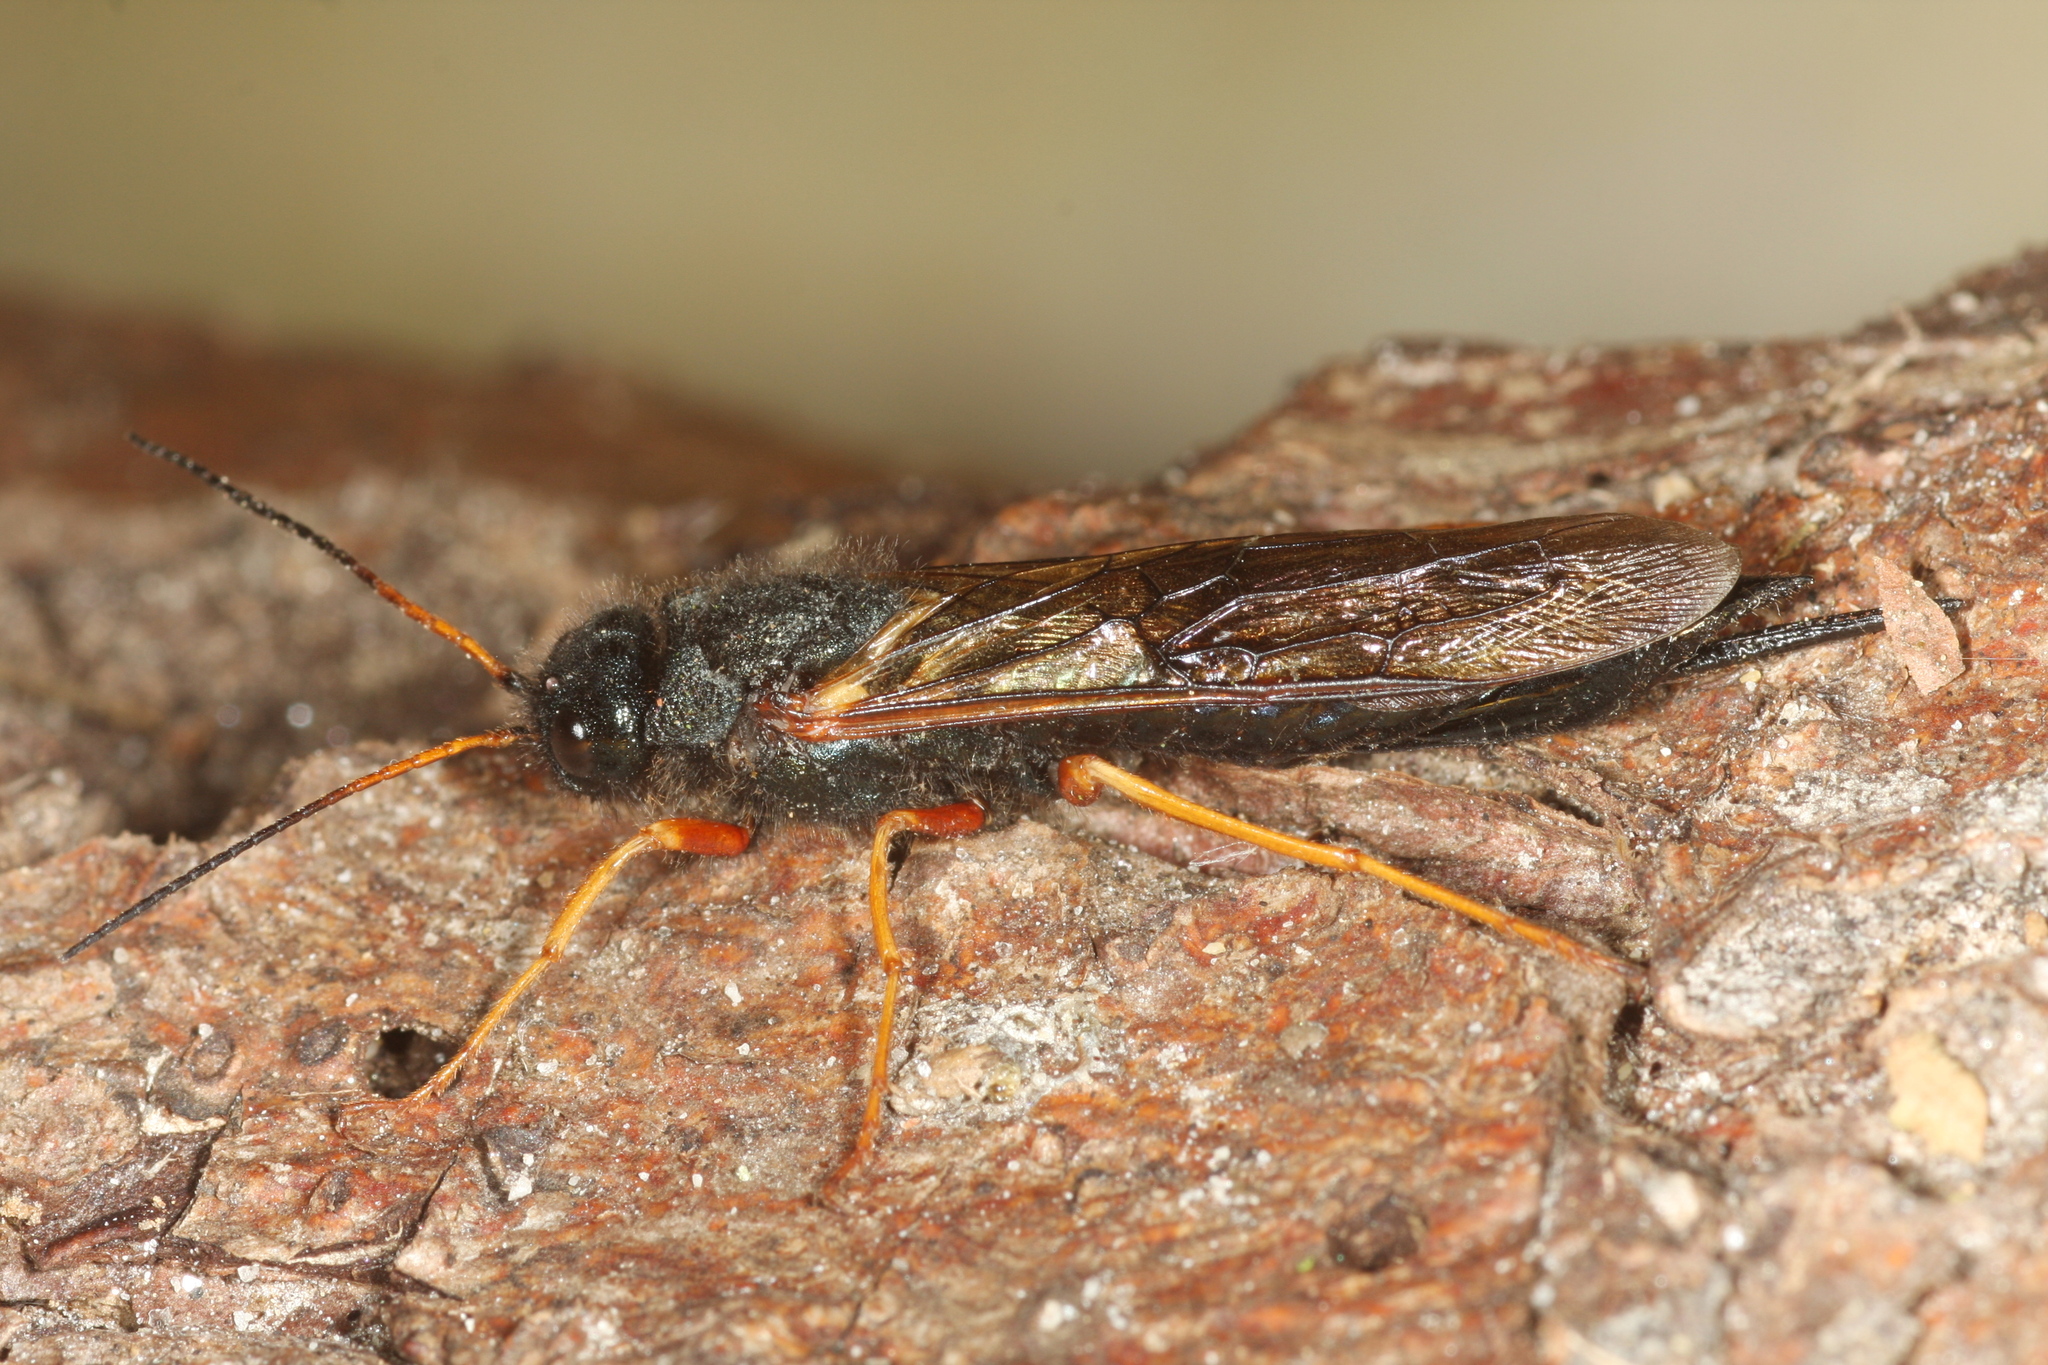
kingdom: Animalia
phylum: Arthropoda
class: Insecta
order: Hymenoptera
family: Siricidae
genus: Sirex
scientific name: Sirex juvencus
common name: Blue horntail
